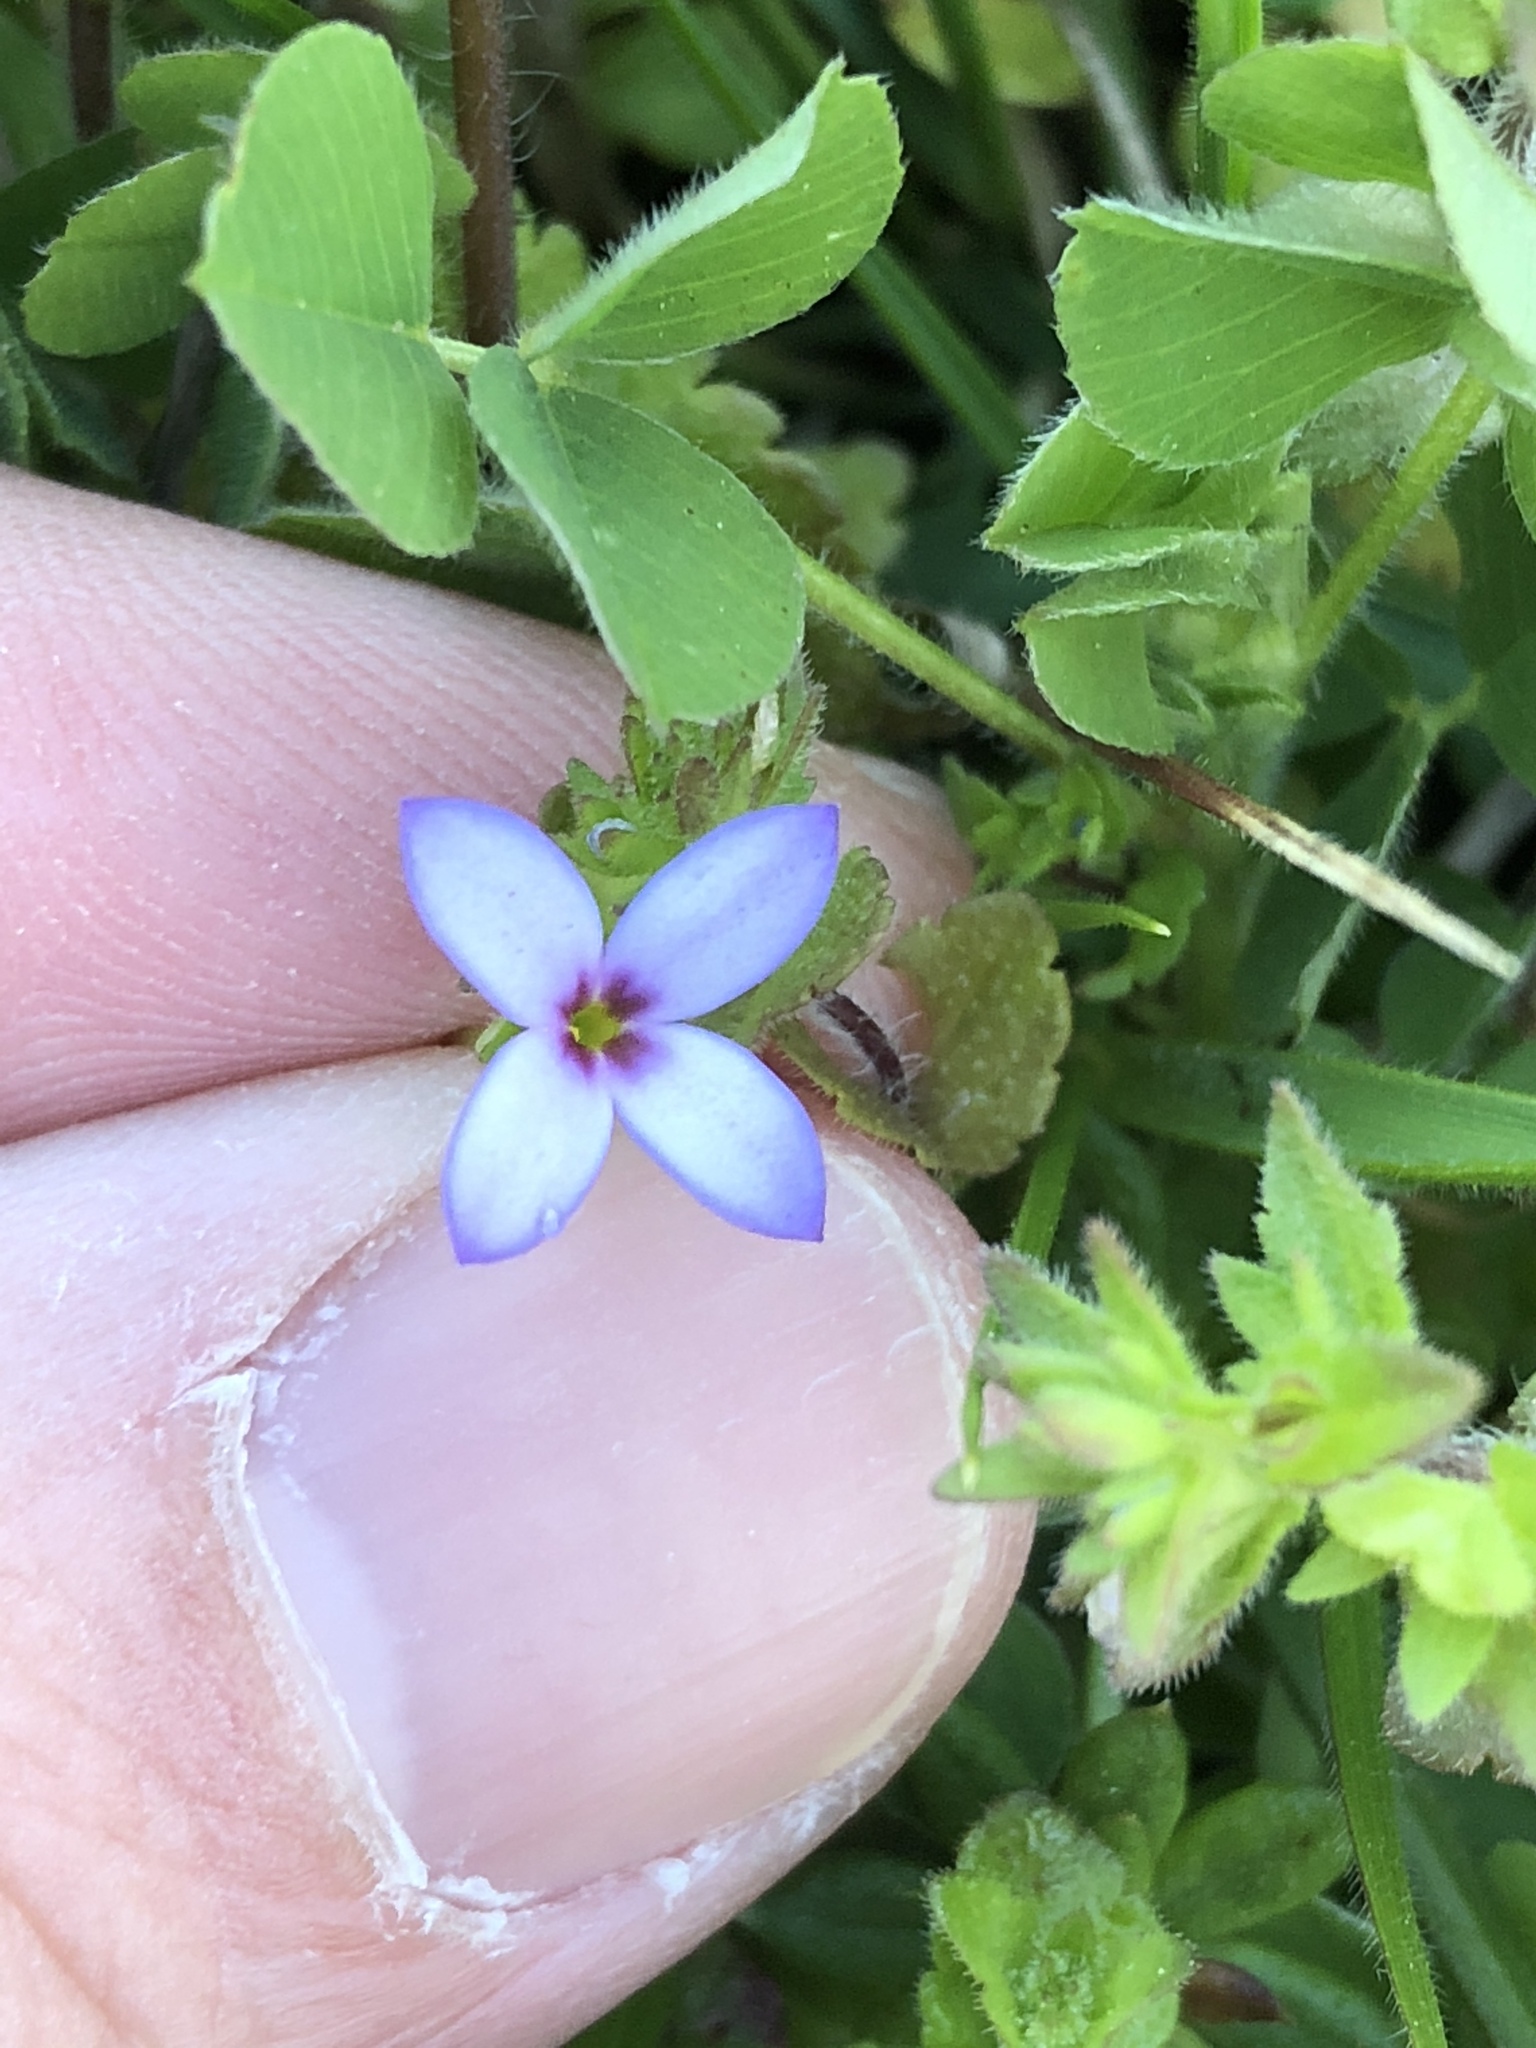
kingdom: Plantae
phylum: Tracheophyta
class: Magnoliopsida
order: Gentianales
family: Rubiaceae
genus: Houstonia
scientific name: Houstonia pusilla
